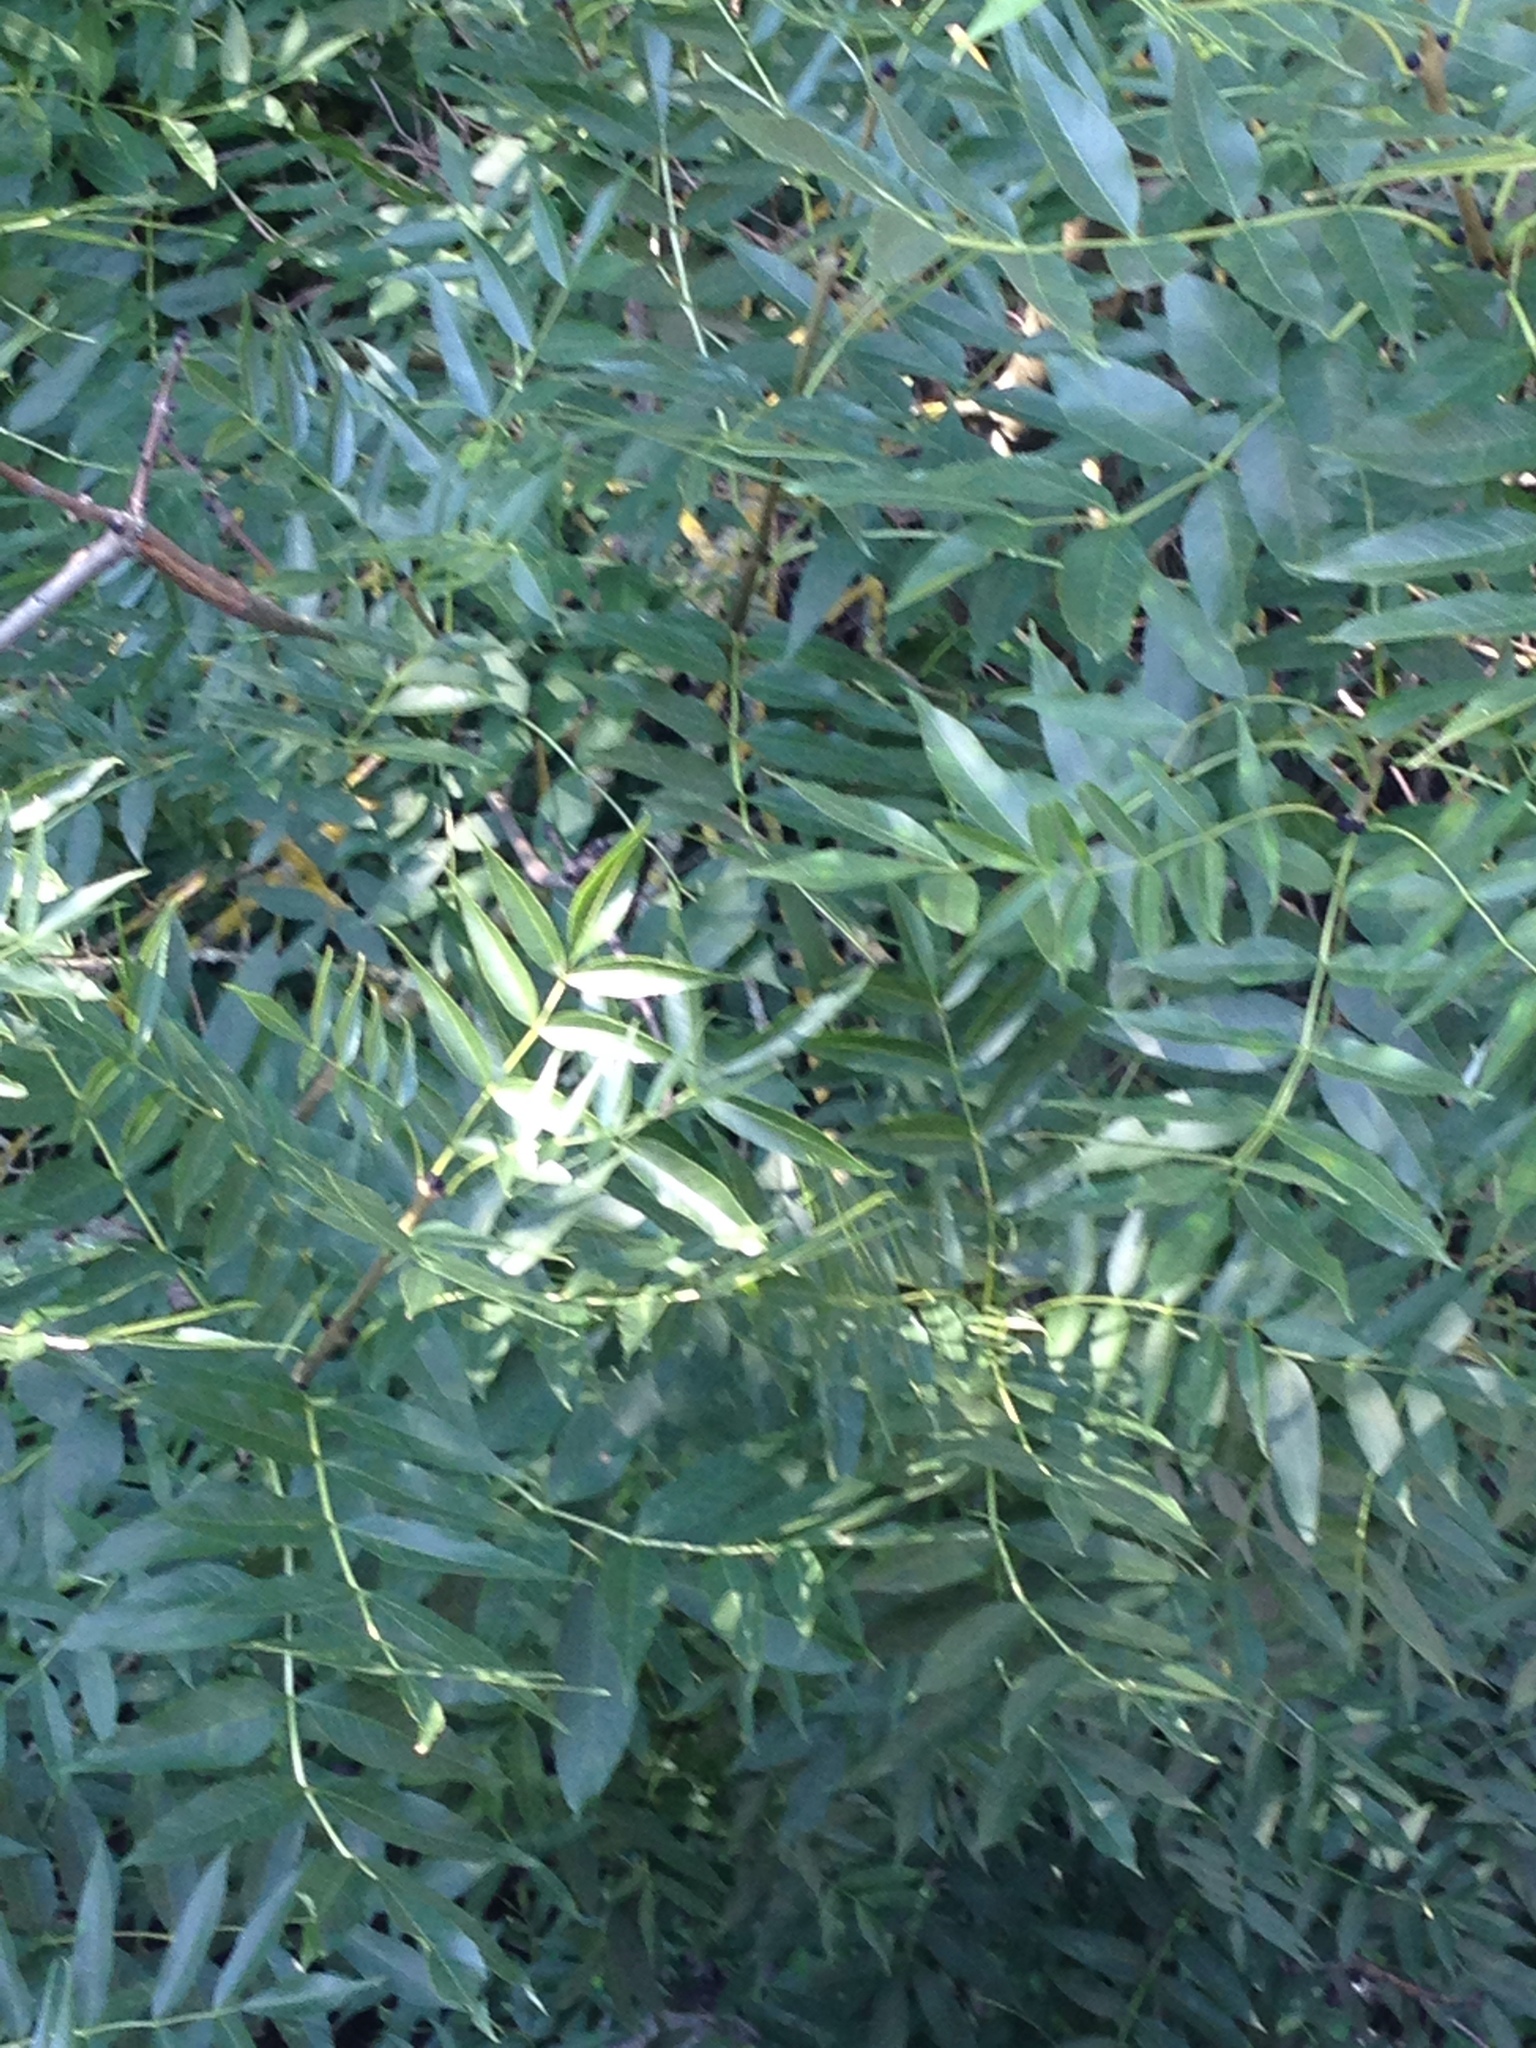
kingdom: Plantae
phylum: Tracheophyta
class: Magnoliopsida
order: Lamiales
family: Oleaceae
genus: Fraxinus
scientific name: Fraxinus excelsior
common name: European ash
